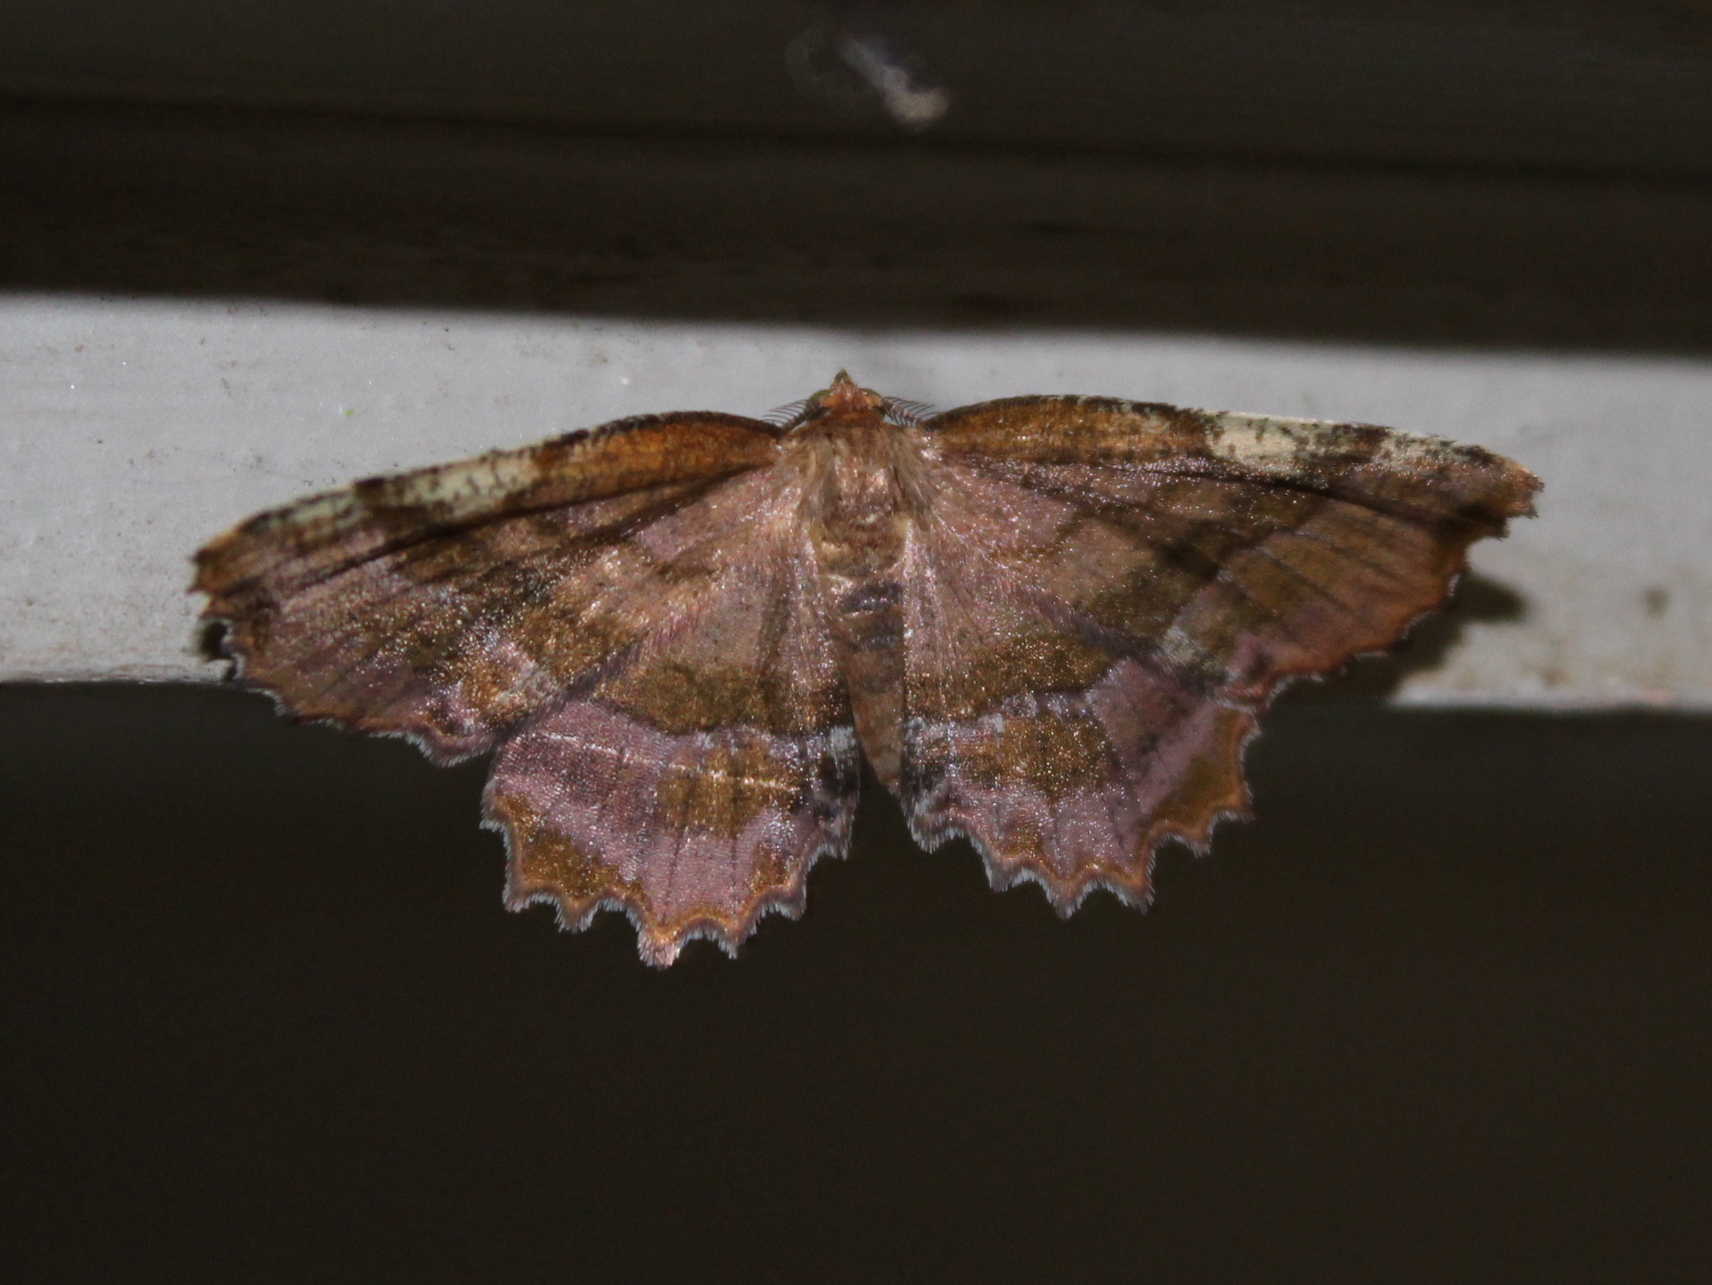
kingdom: Animalia
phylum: Arthropoda
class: Insecta
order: Lepidoptera
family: Geometridae
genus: Cepphis
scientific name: Cepphis armataria
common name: Scallop moth
